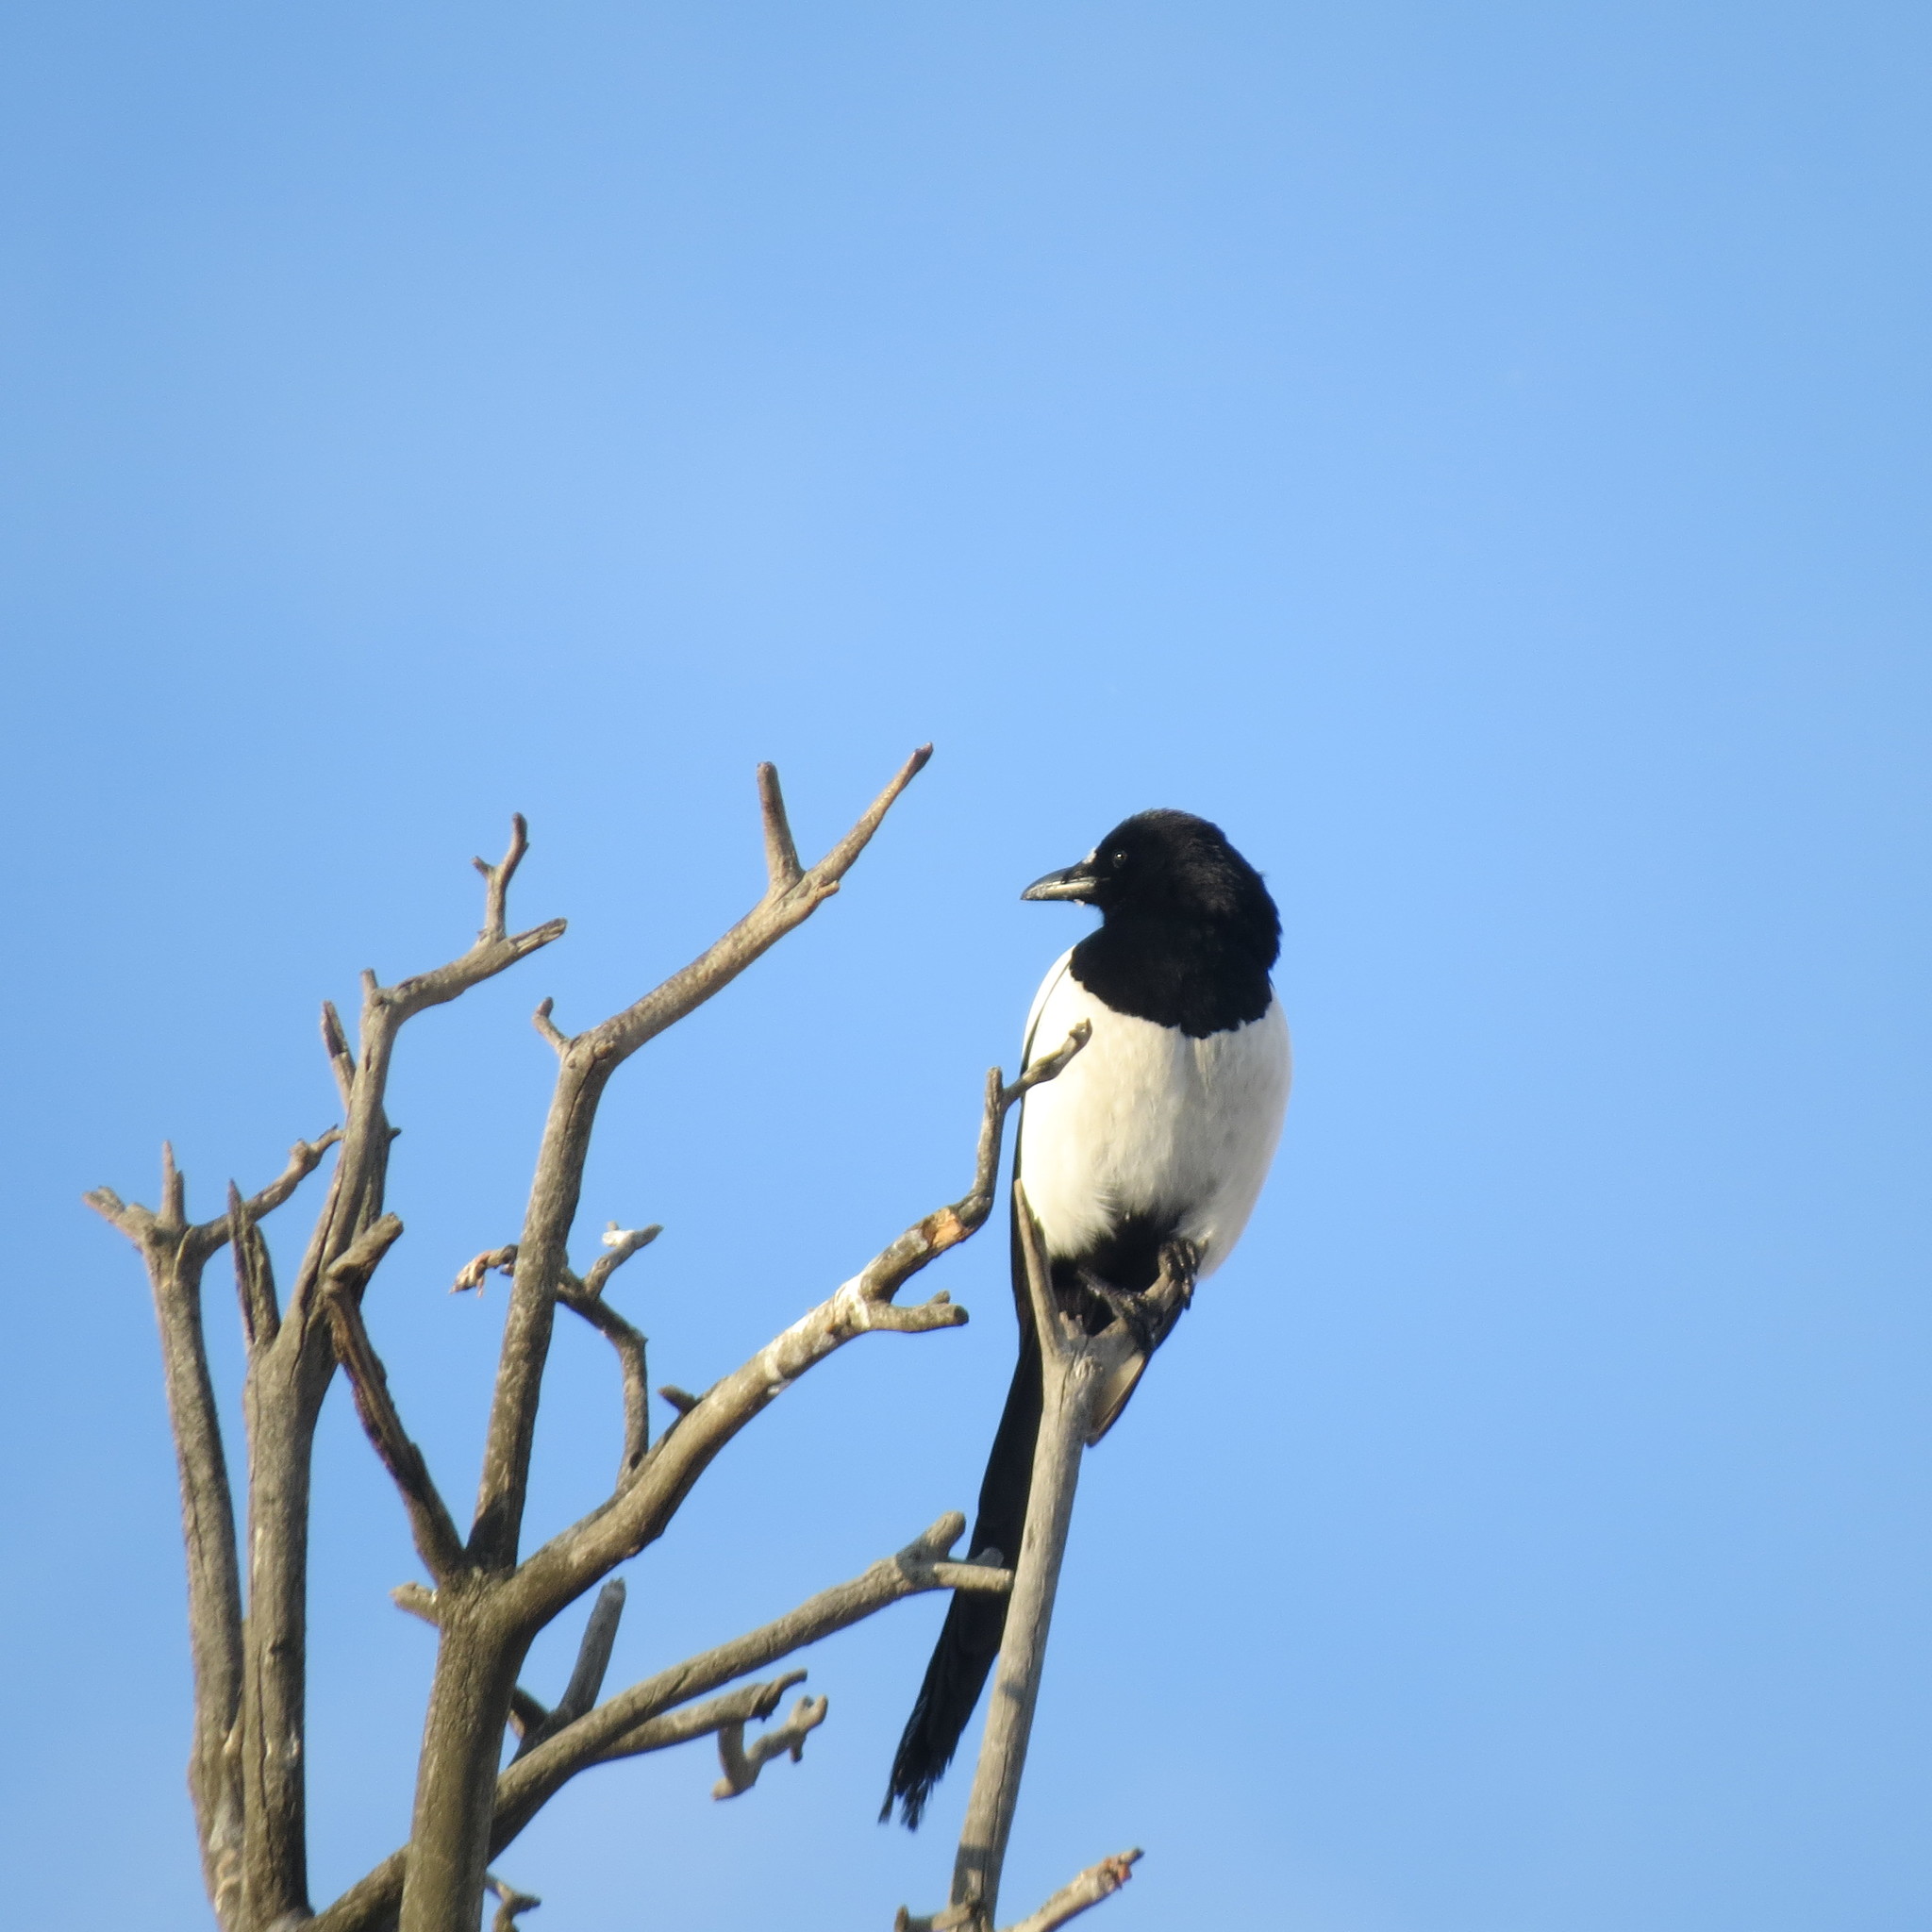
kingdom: Animalia
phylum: Chordata
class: Aves
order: Passeriformes
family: Corvidae
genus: Pica
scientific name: Pica pica
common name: Eurasian magpie
